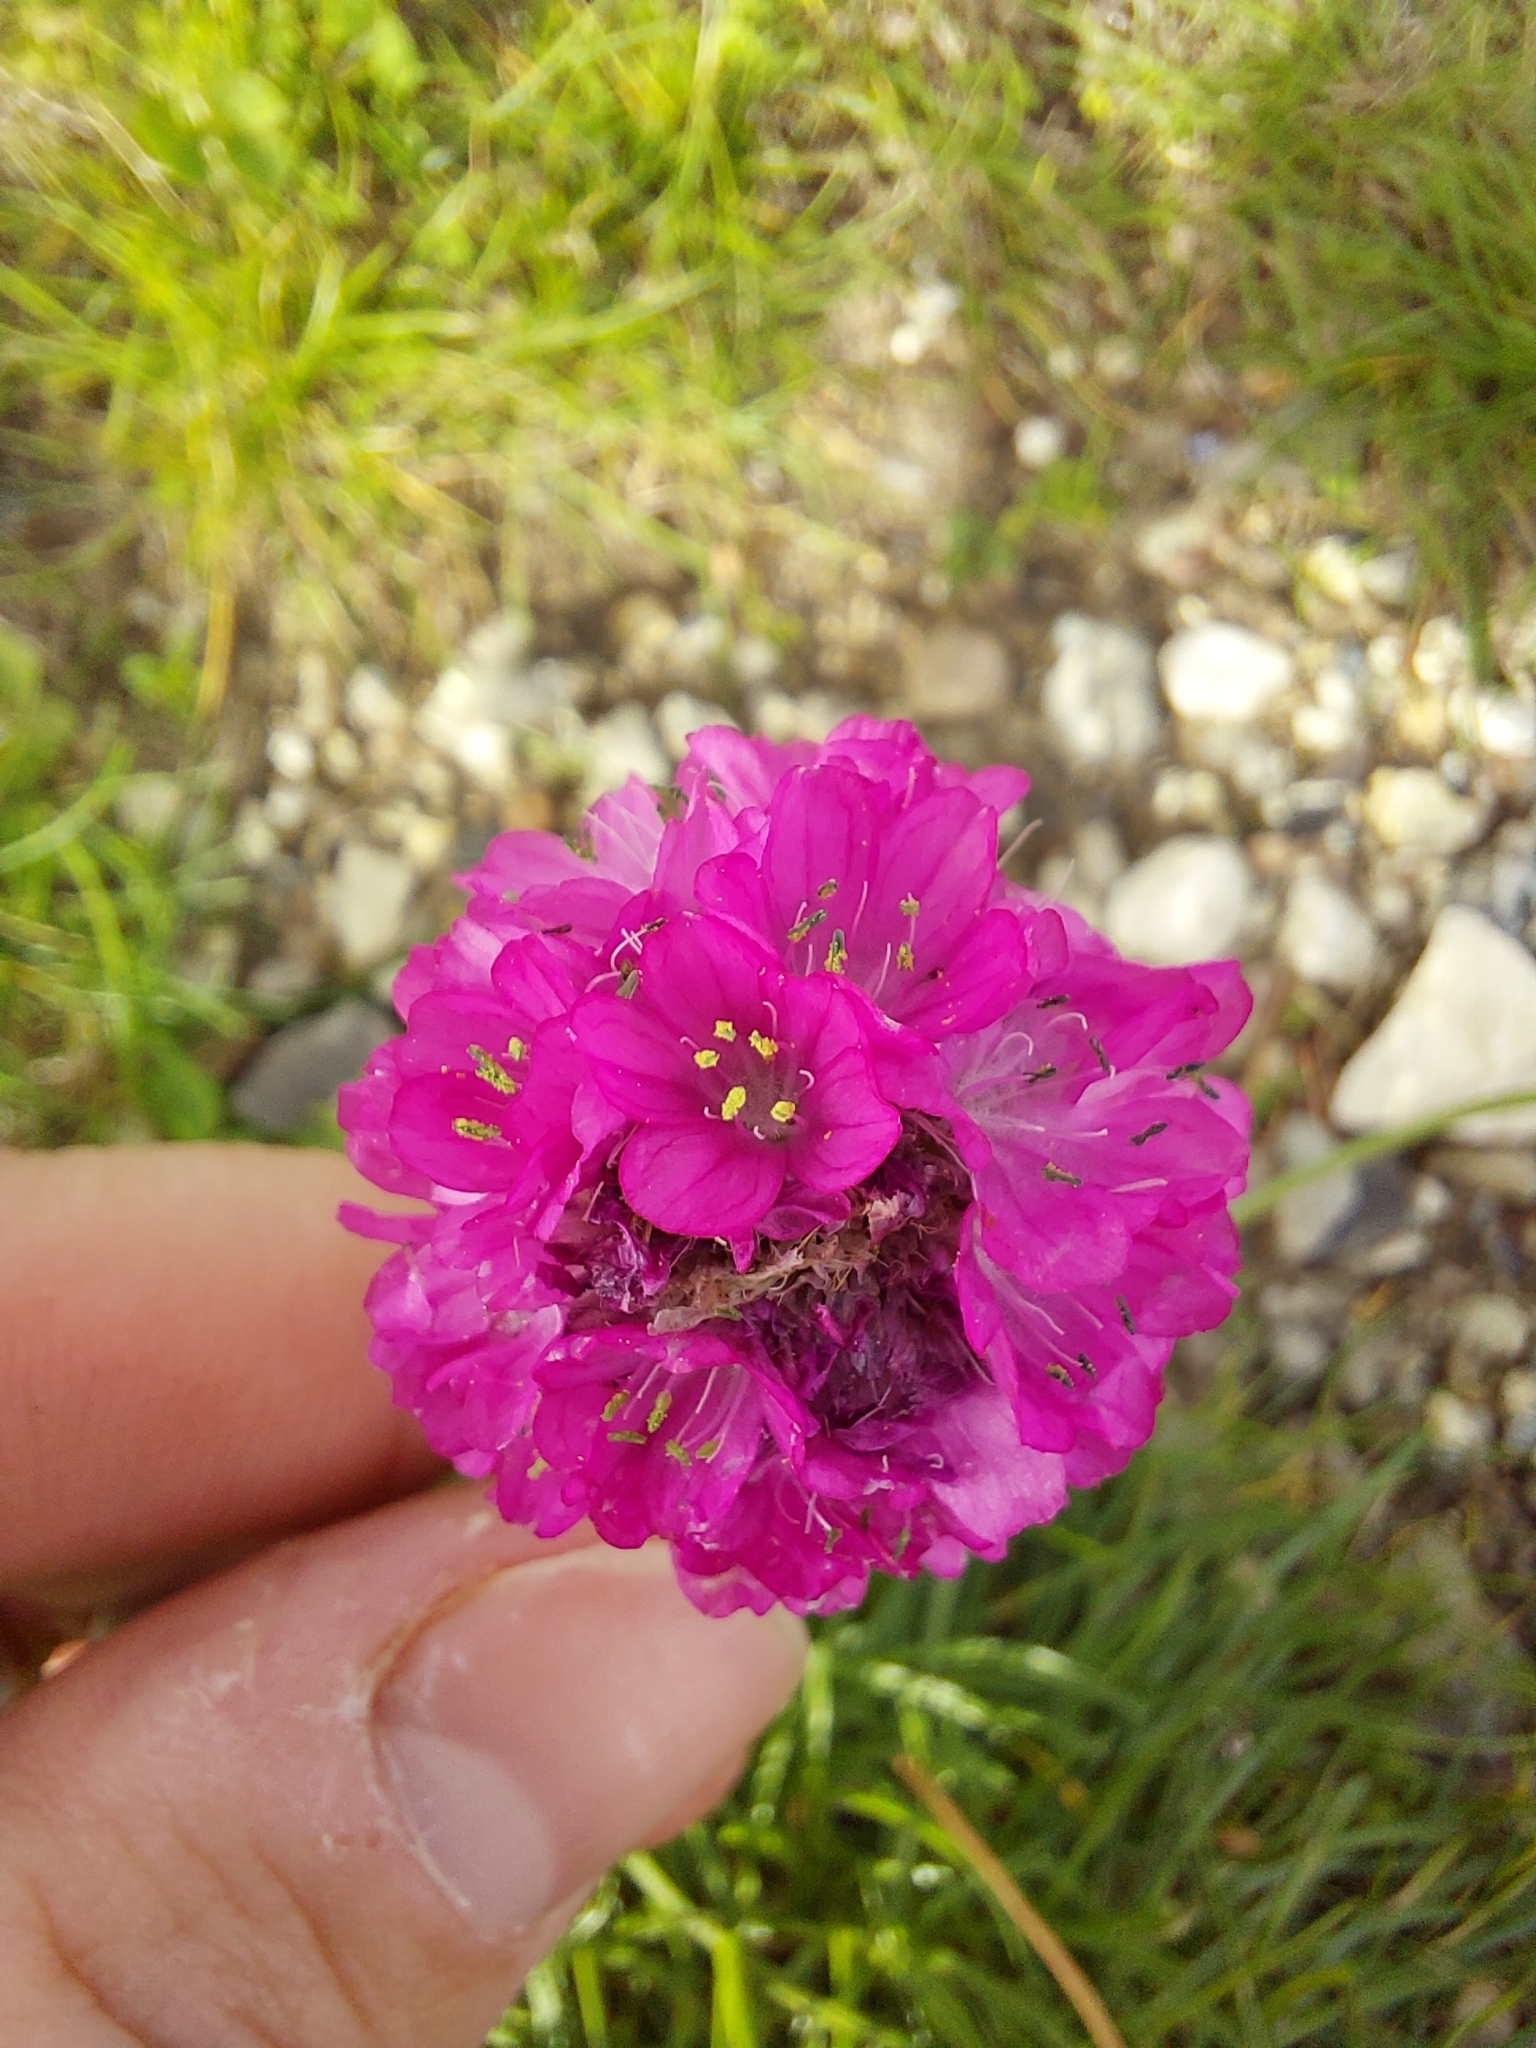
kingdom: Plantae
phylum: Tracheophyta
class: Magnoliopsida
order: Caryophyllales
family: Plumbaginaceae
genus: Armeria
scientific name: Armeria maritima
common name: Thrift
